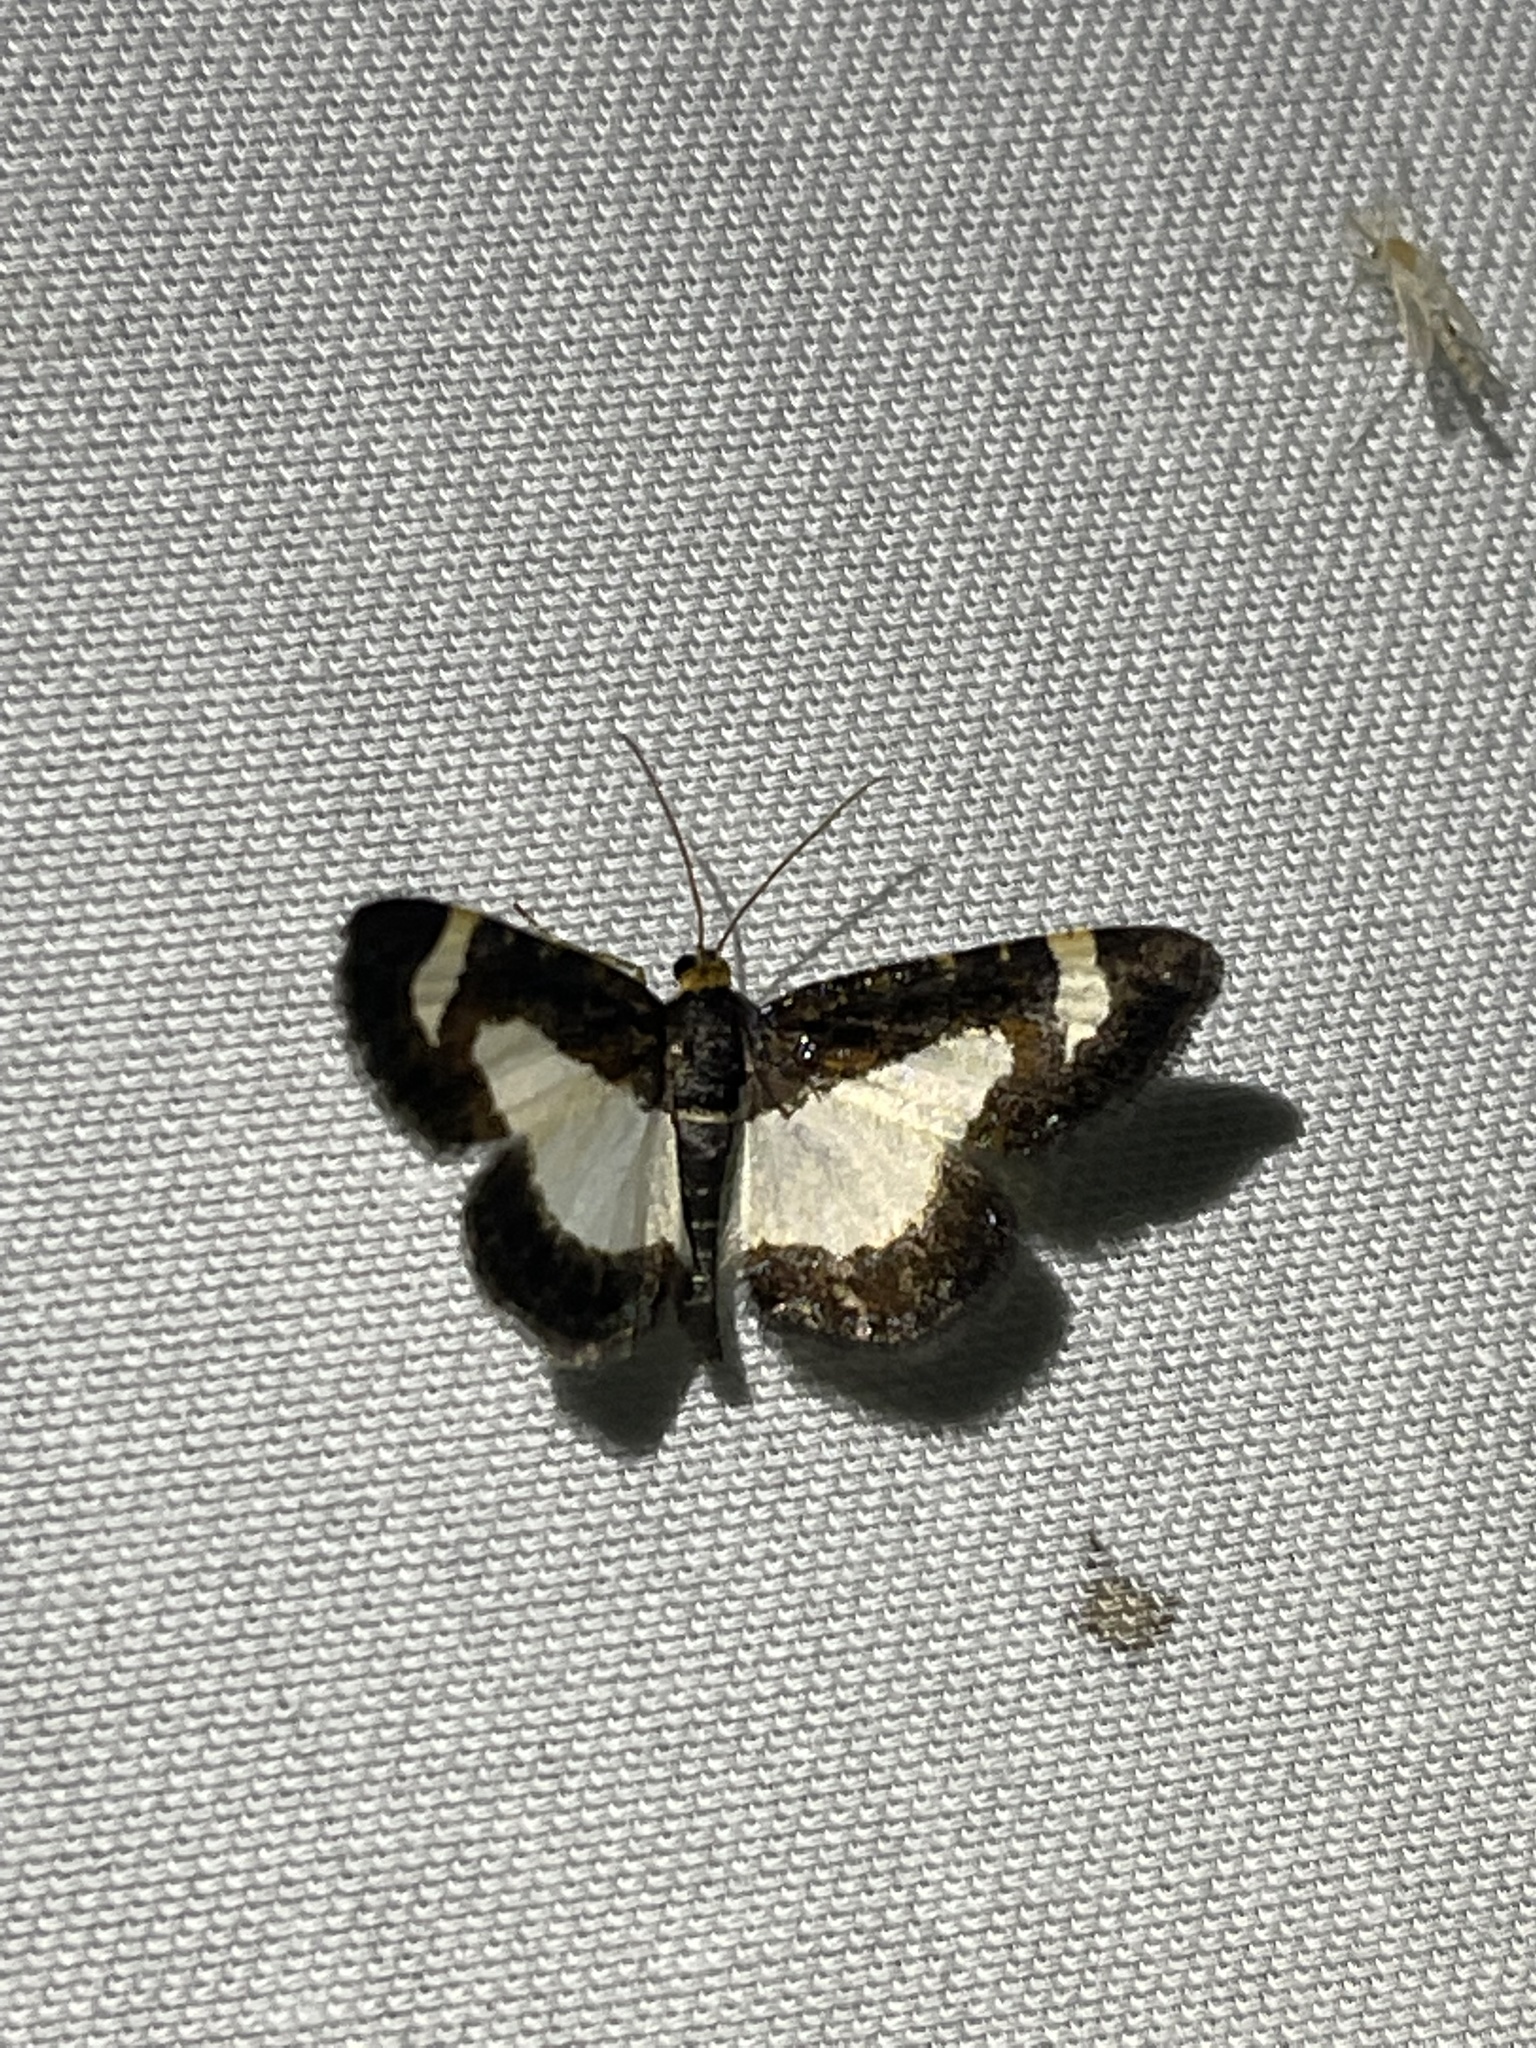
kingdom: Animalia
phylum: Arthropoda
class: Insecta
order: Lepidoptera
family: Geometridae
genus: Heliomata
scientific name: Heliomata cycladata
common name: Common spring moth
